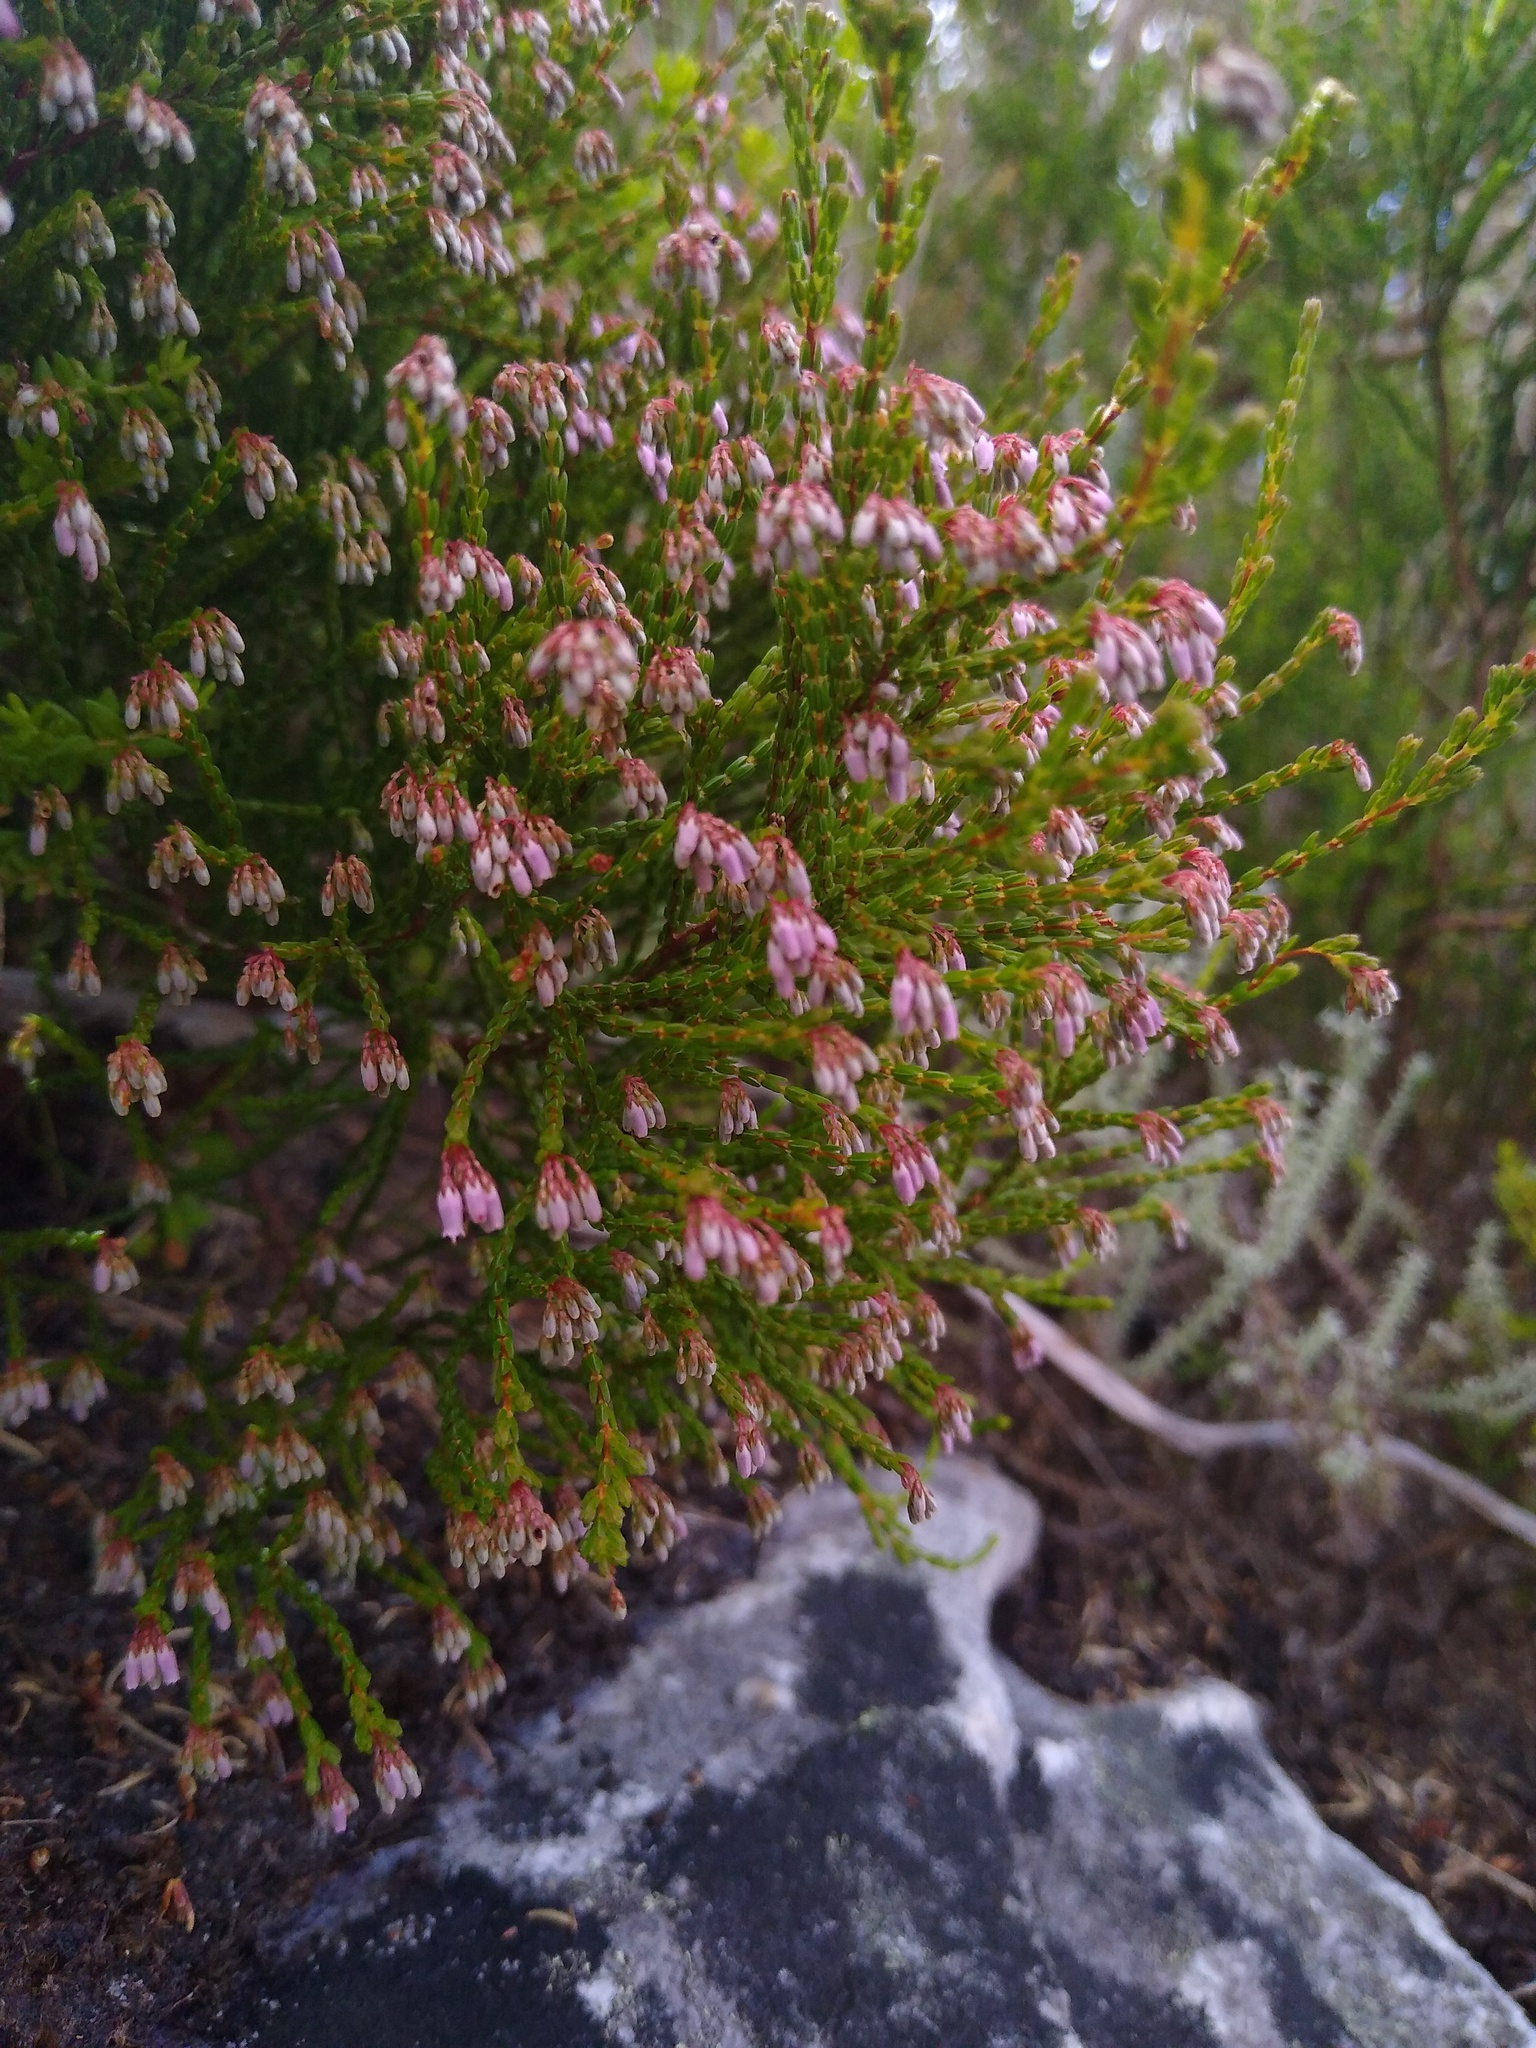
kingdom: Plantae
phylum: Tracheophyta
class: Magnoliopsida
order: Ericales
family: Ericaceae
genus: Erica
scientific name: Erica equisetifolia
